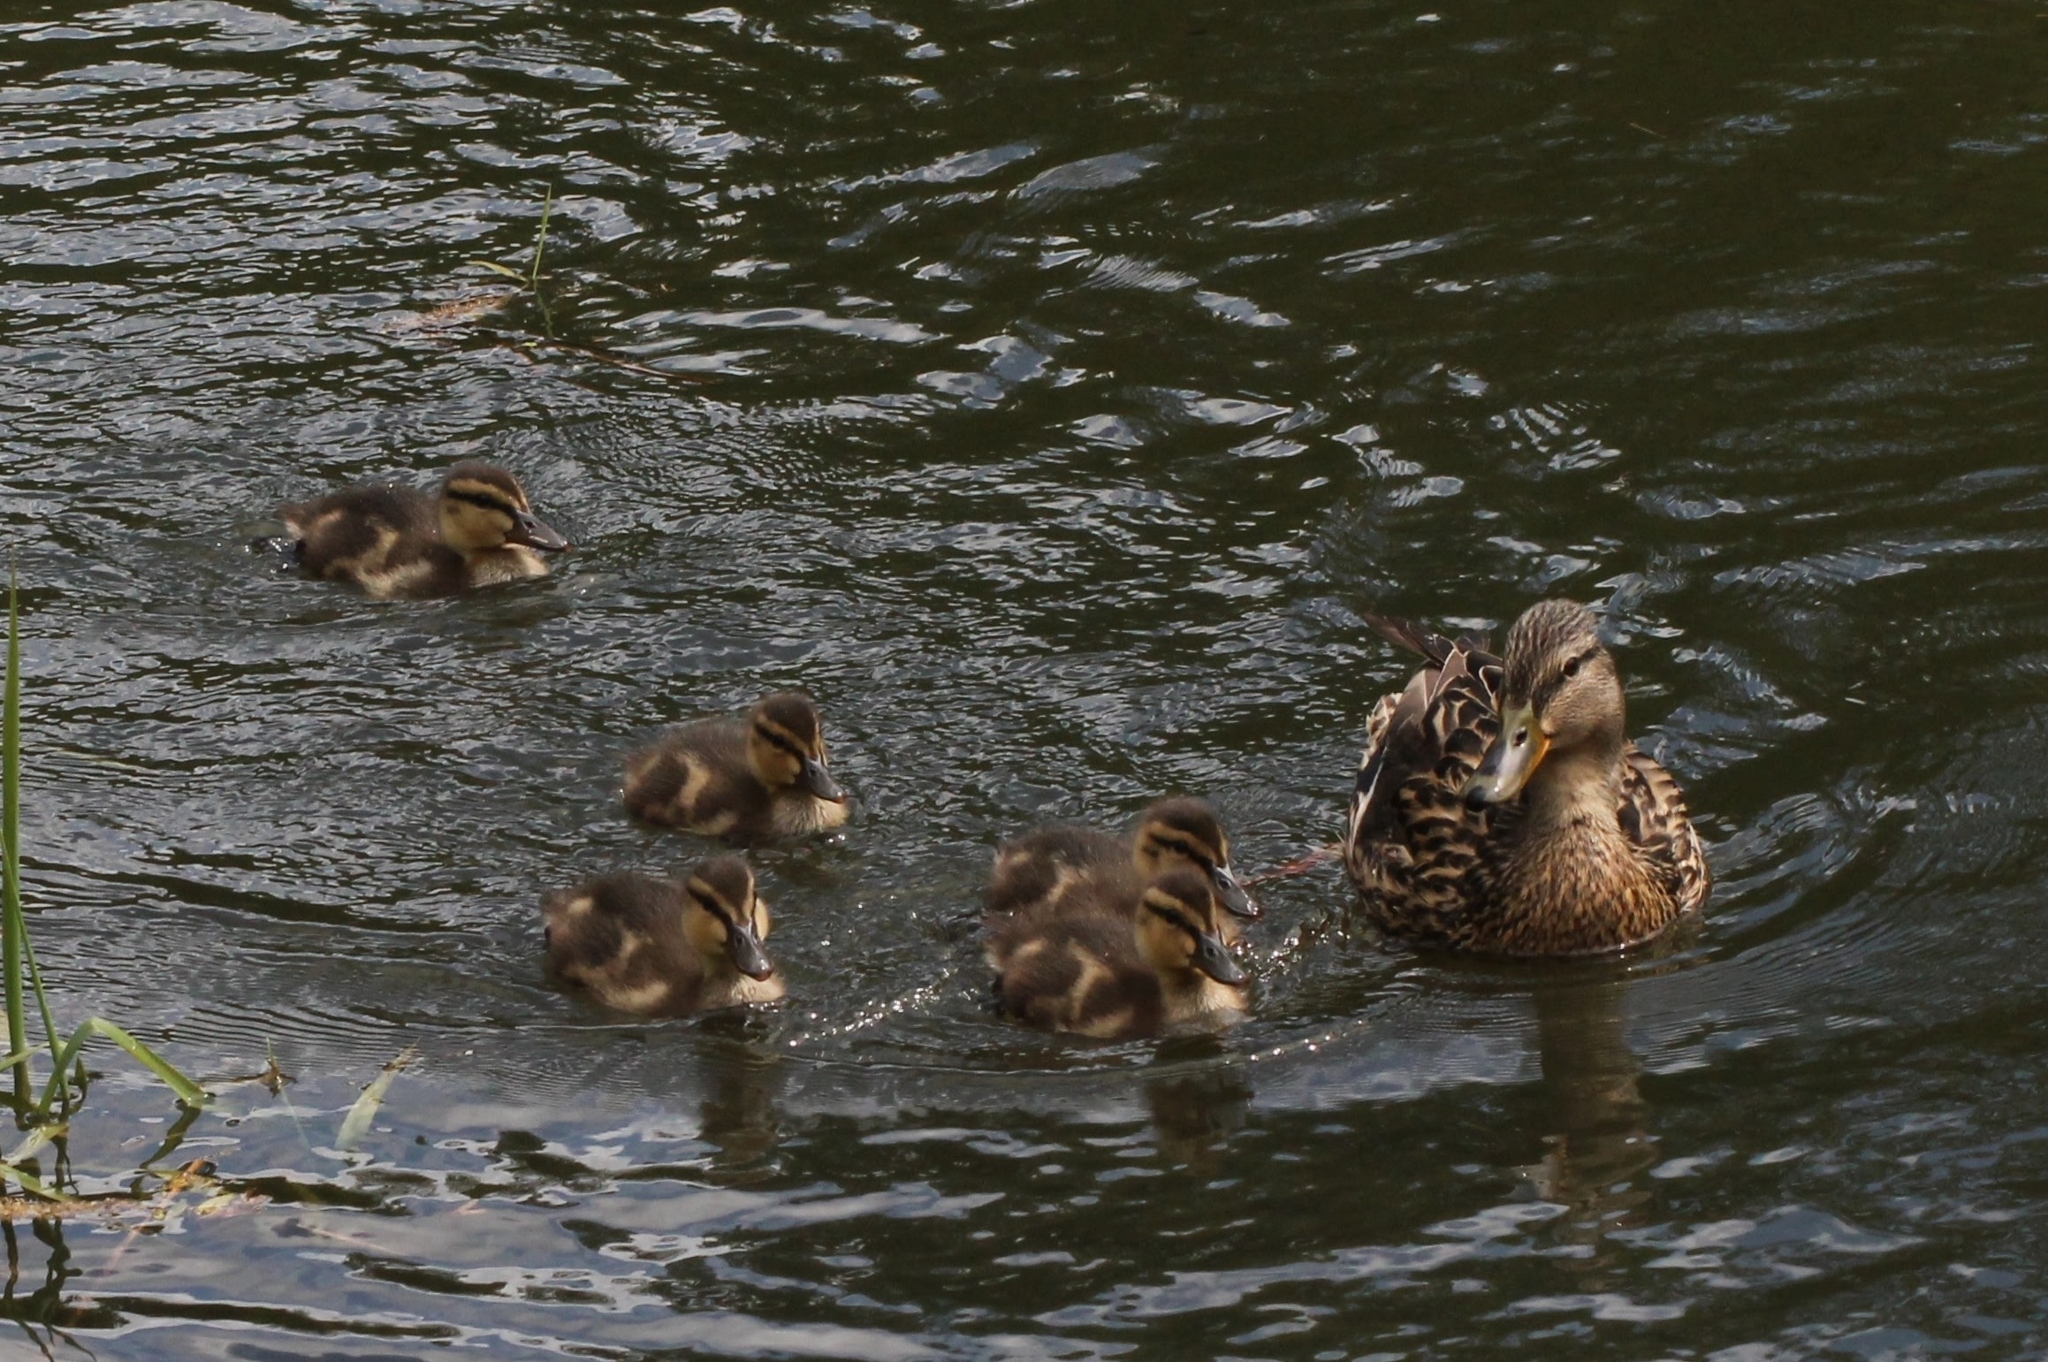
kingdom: Animalia
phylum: Chordata
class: Aves
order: Anseriformes
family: Anatidae
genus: Anas
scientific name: Anas platyrhynchos
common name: Mallard
